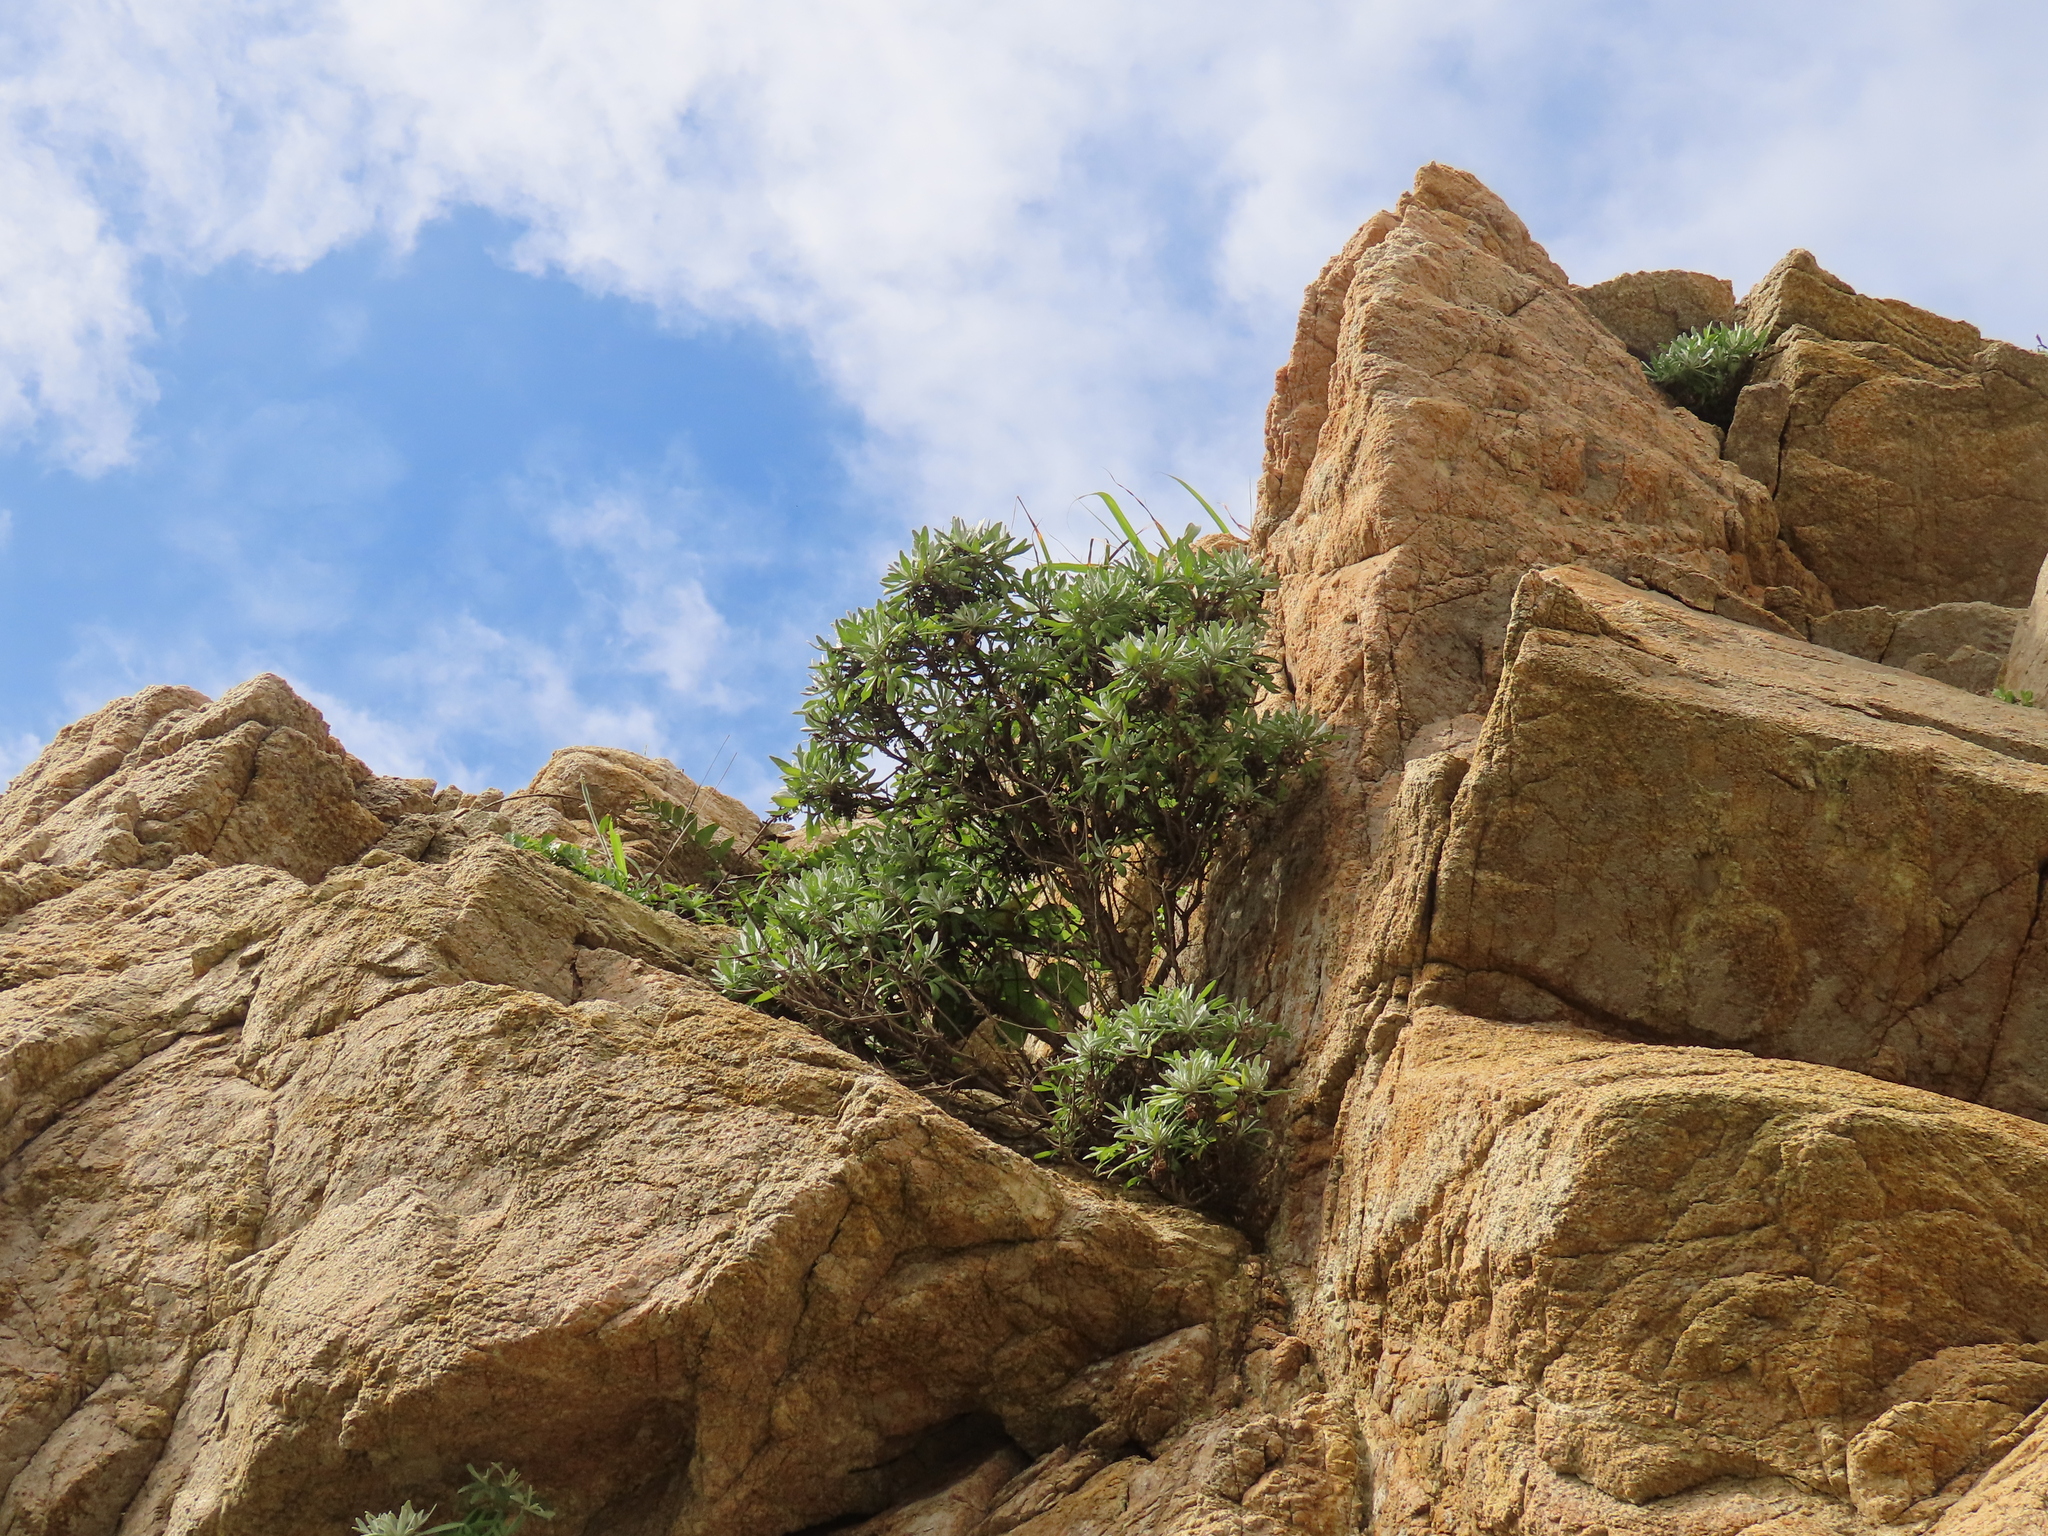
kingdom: Plantae
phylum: Tracheophyta
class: Magnoliopsida
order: Asterales
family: Asteraceae
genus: Crossostephium
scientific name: Crossostephium chinense
